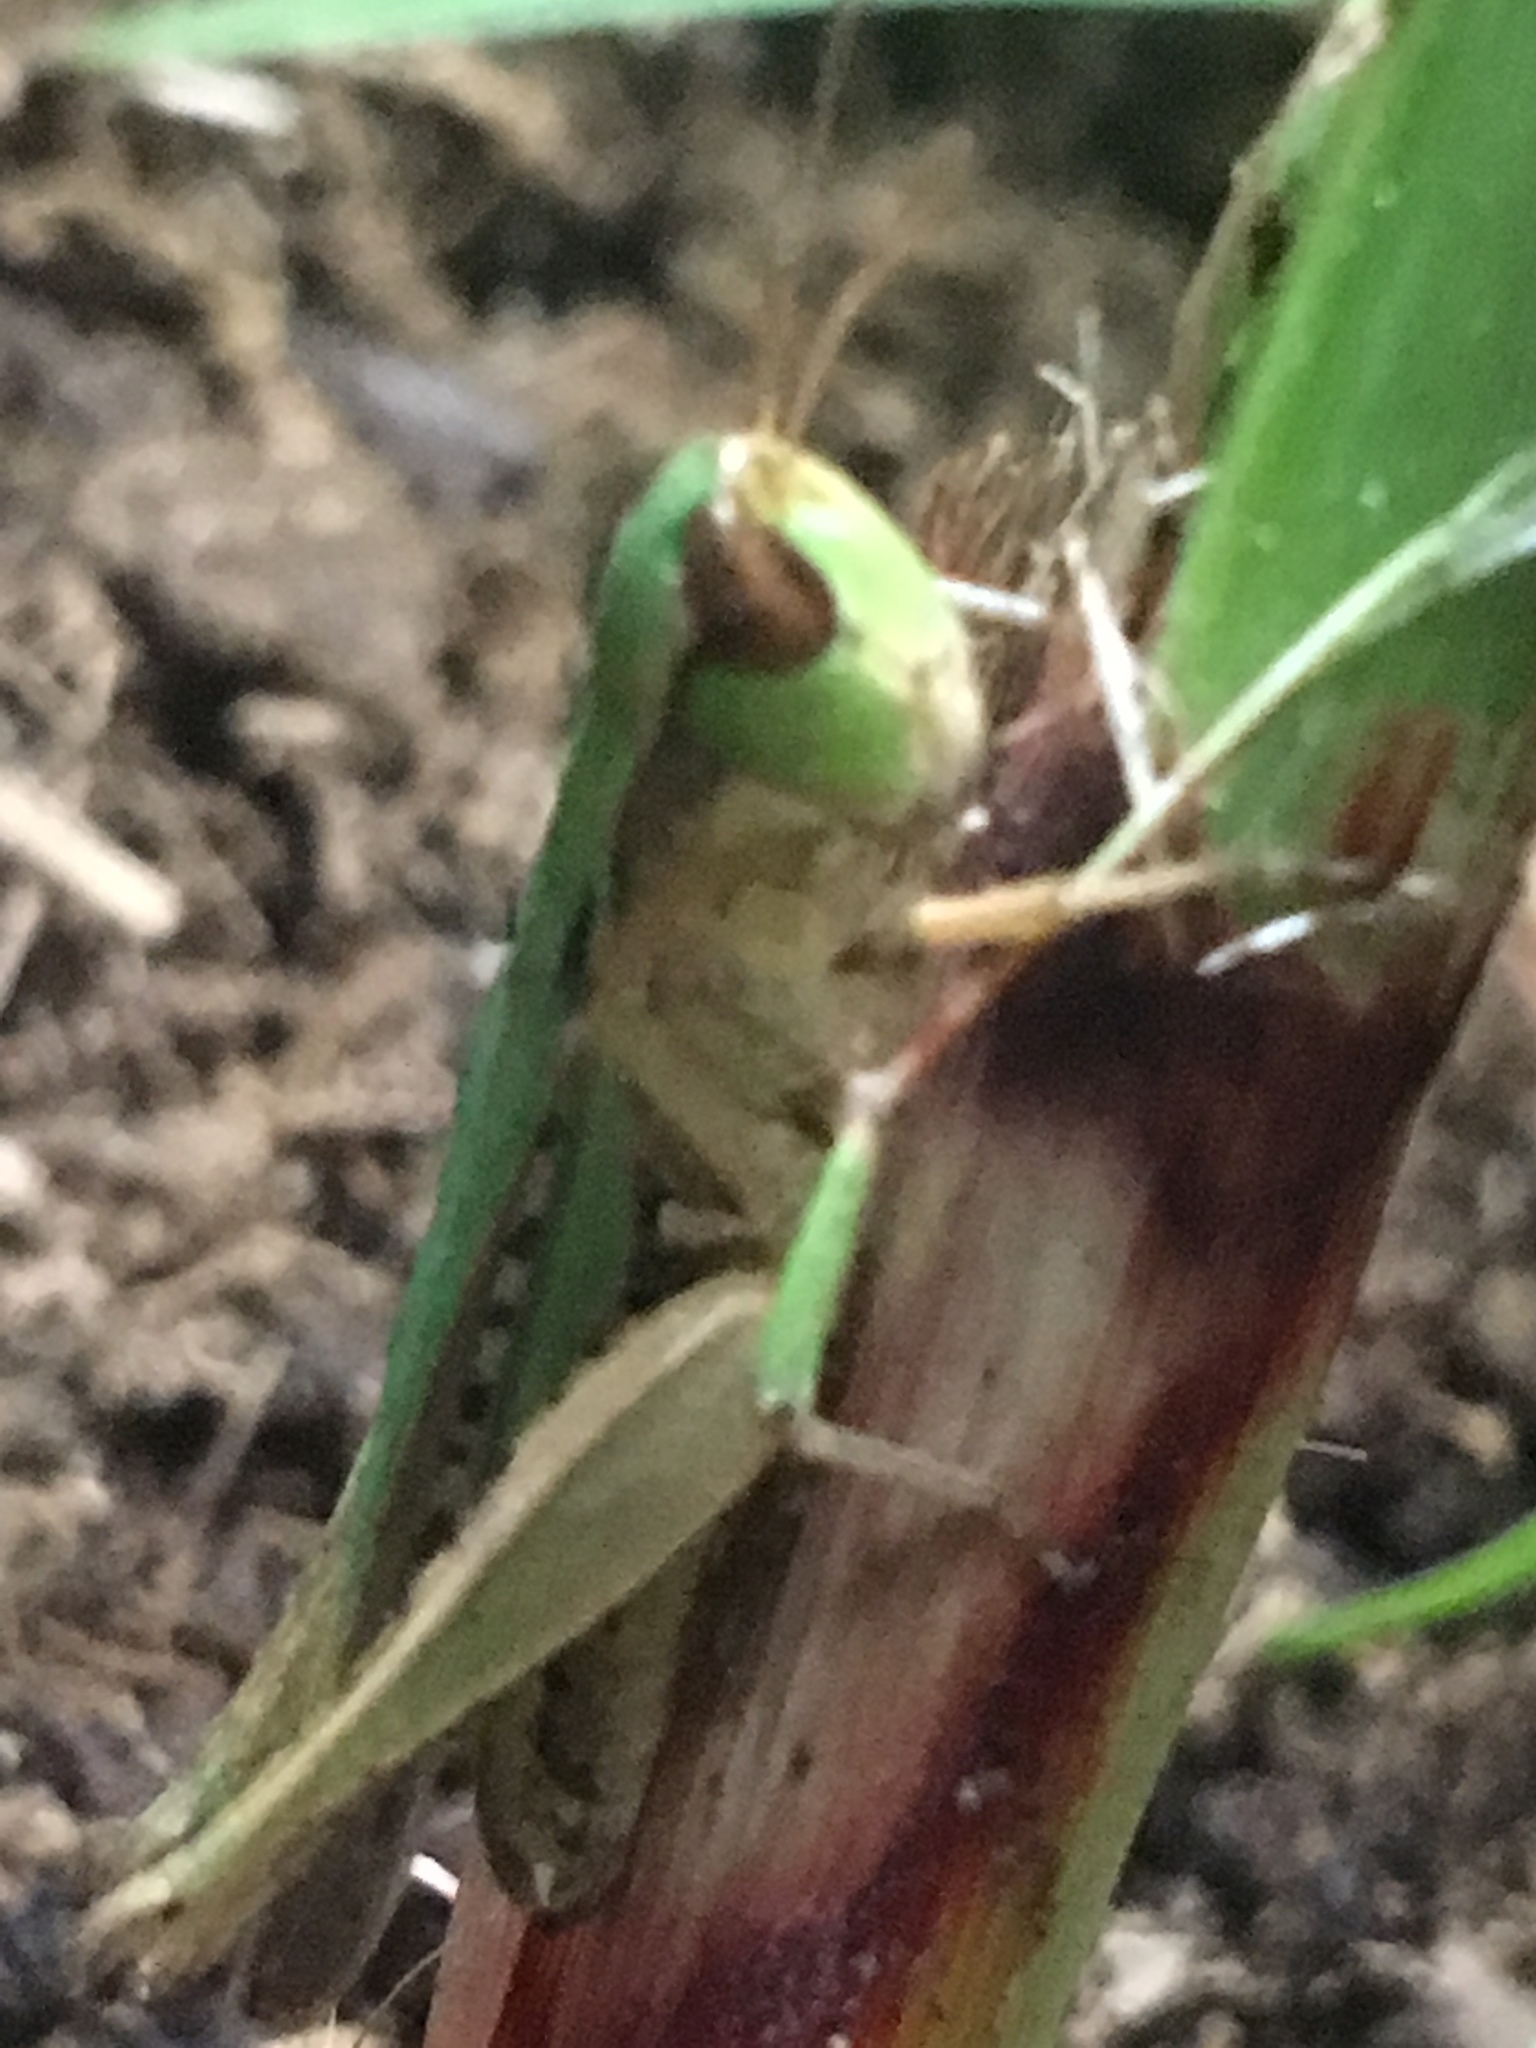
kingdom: Animalia
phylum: Arthropoda
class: Insecta
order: Orthoptera
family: Acrididae
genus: Orphulella
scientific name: Orphulella speciosa
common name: Pasture grasshopper
